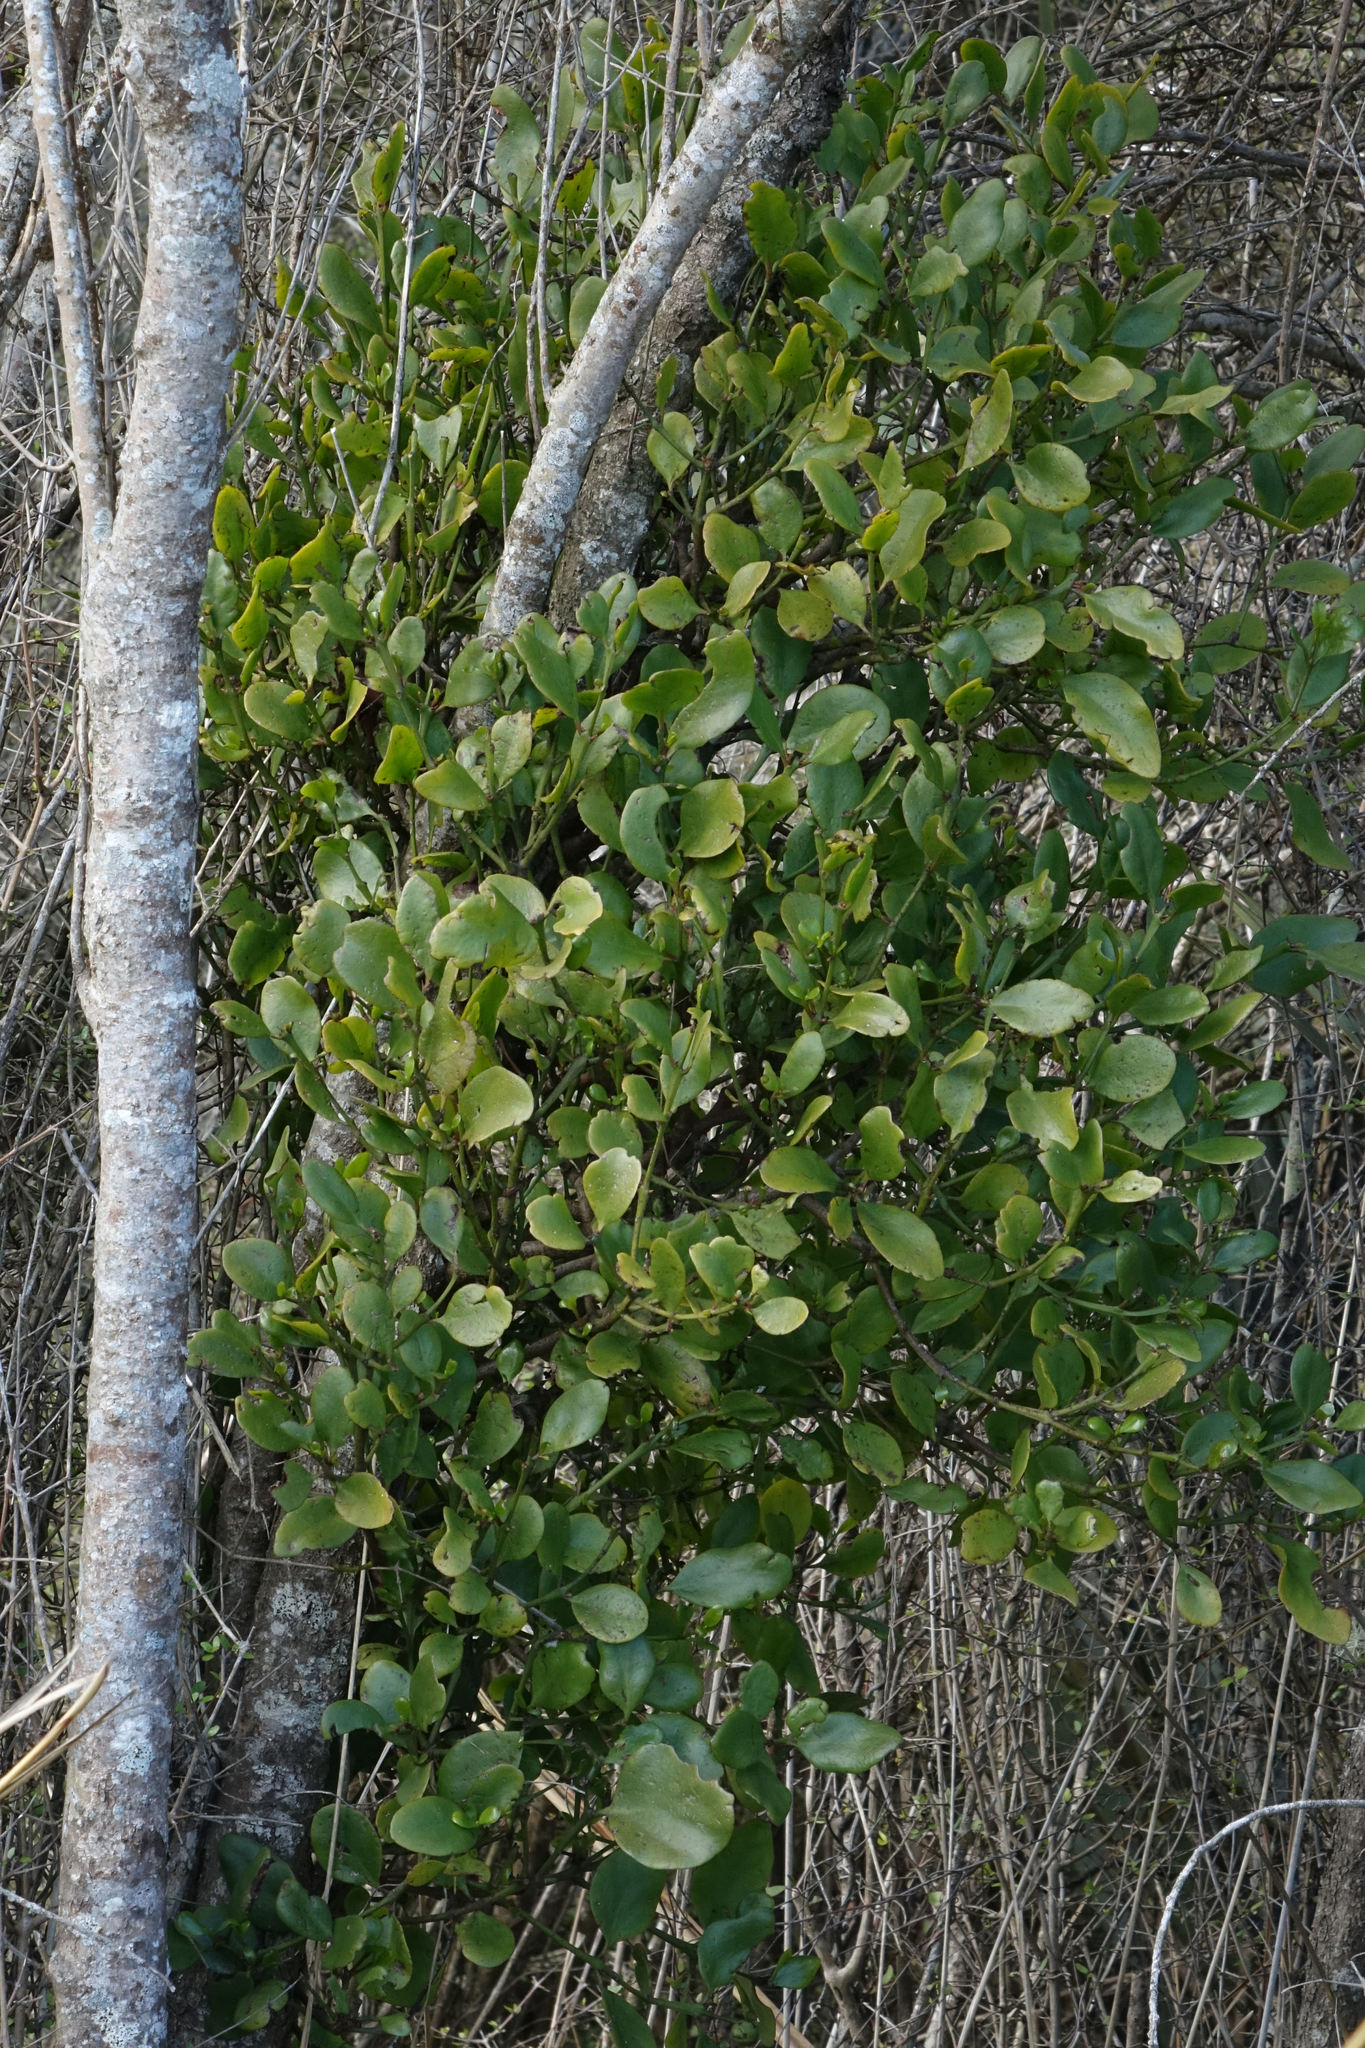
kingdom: Plantae
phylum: Tracheophyta
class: Magnoliopsida
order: Santalales
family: Loranthaceae
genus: Ileostylus
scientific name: Ileostylus micranthus
